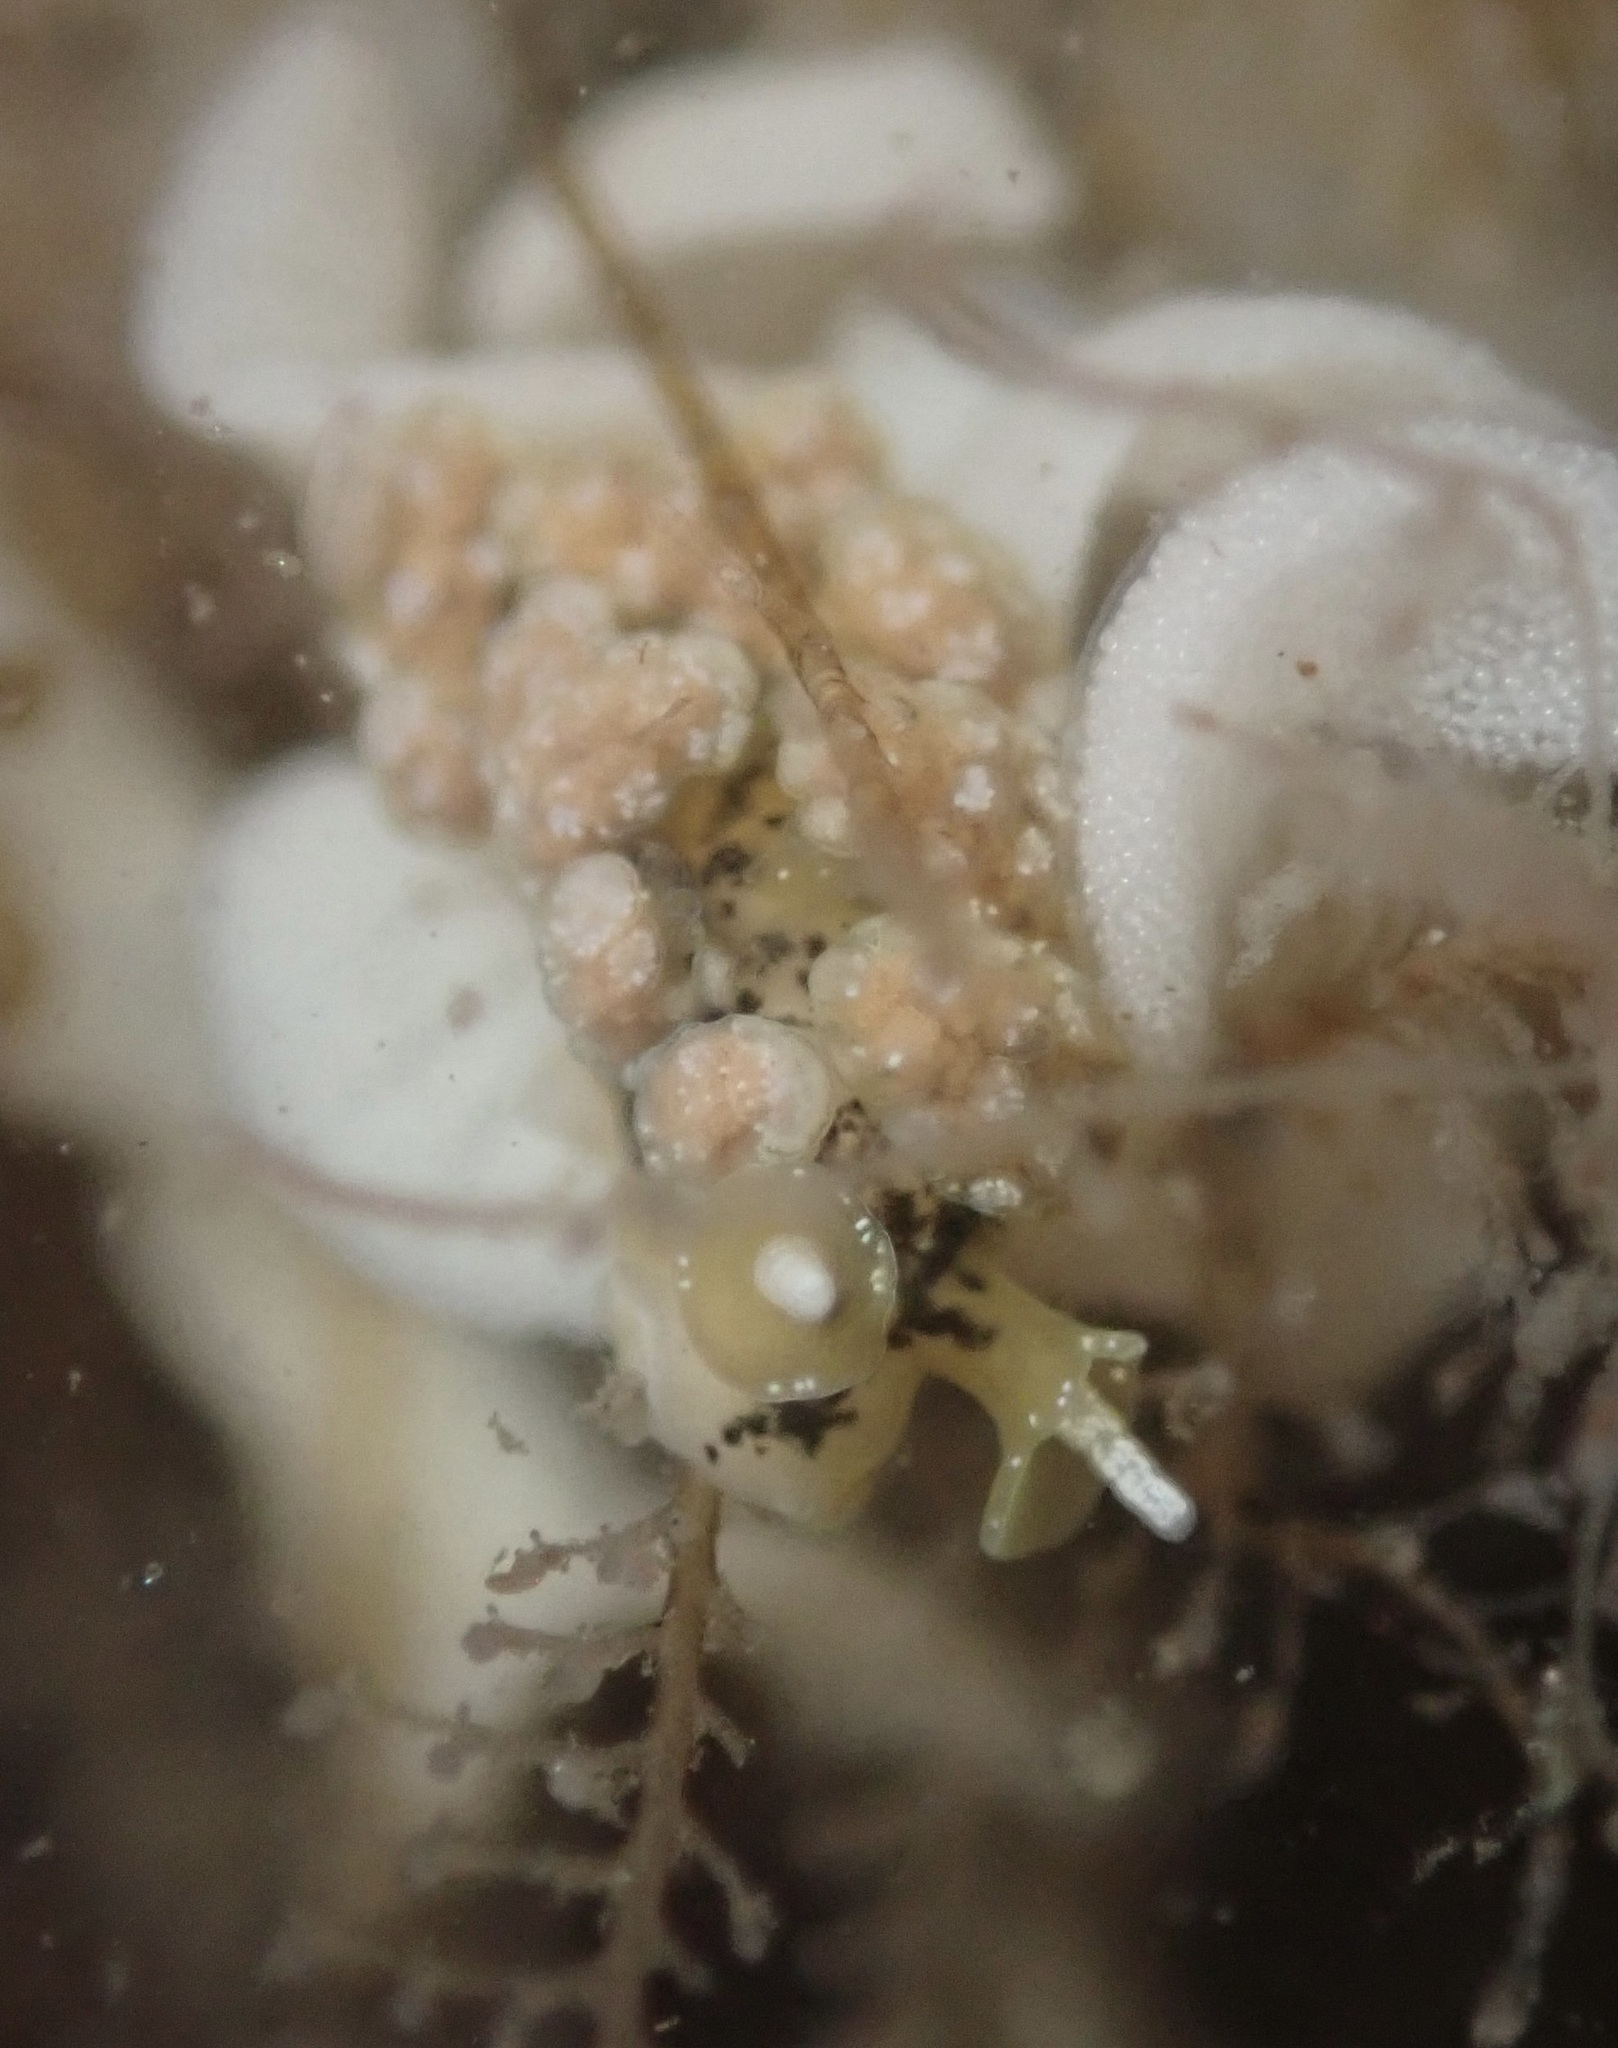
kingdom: Animalia
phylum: Mollusca
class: Gastropoda
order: Nudibranchia
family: Dotidae
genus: Doto
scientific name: Doto kya
